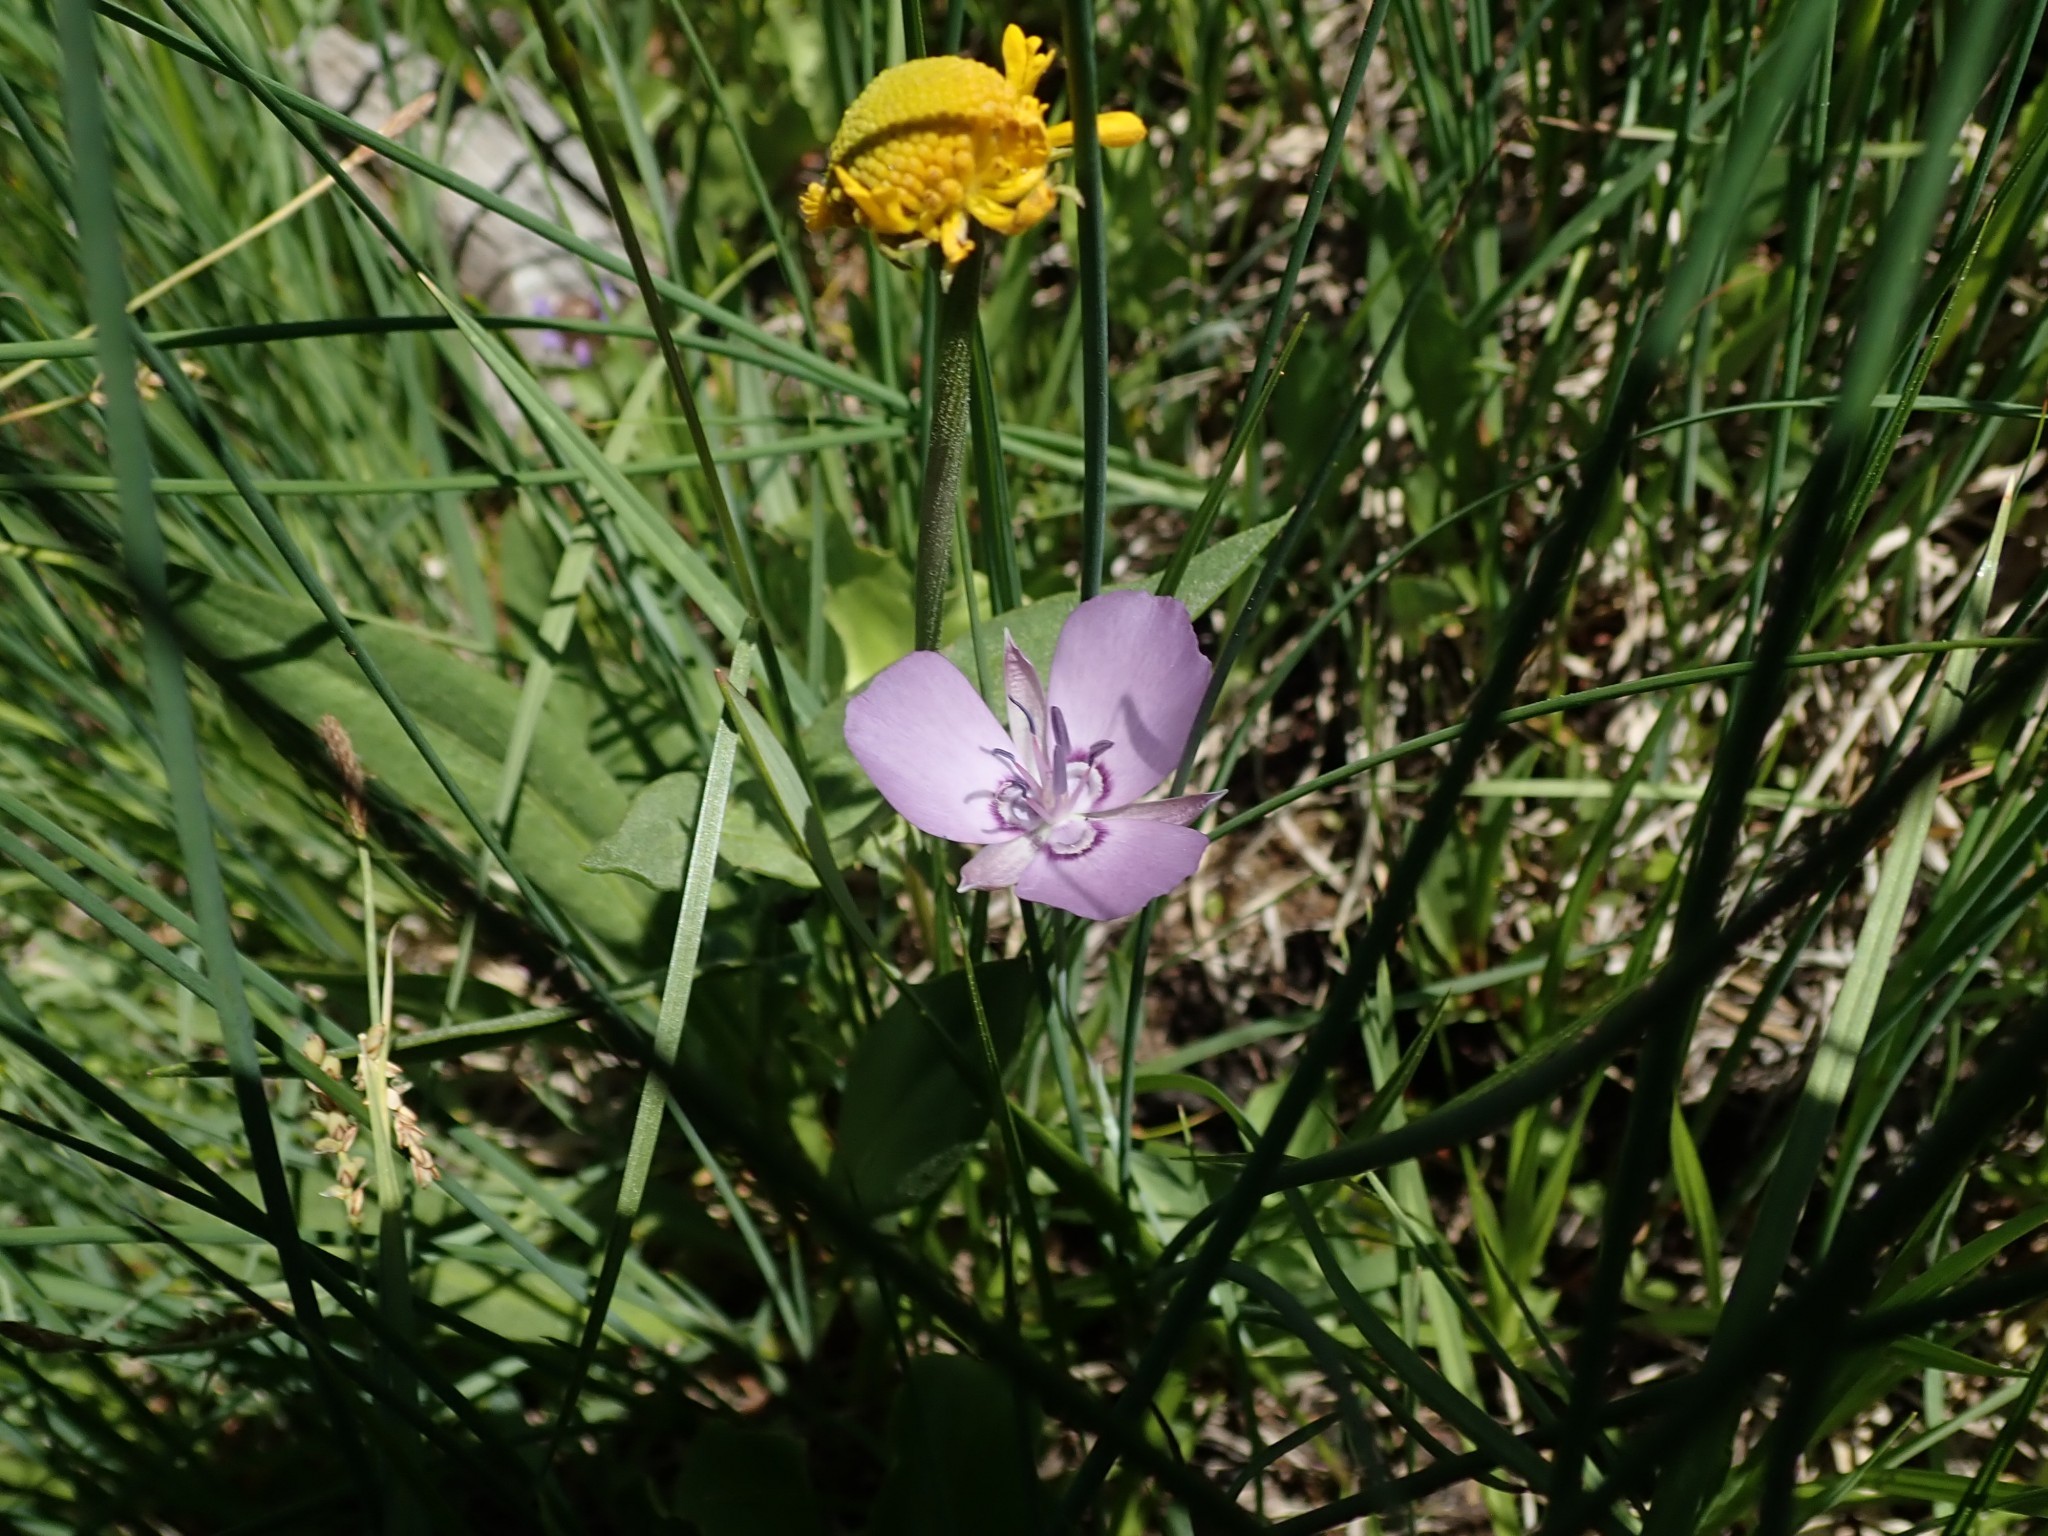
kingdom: Plantae
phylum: Tracheophyta
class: Liliopsida
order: Liliales
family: Liliaceae
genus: Calochortus
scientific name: Calochortus nudus
